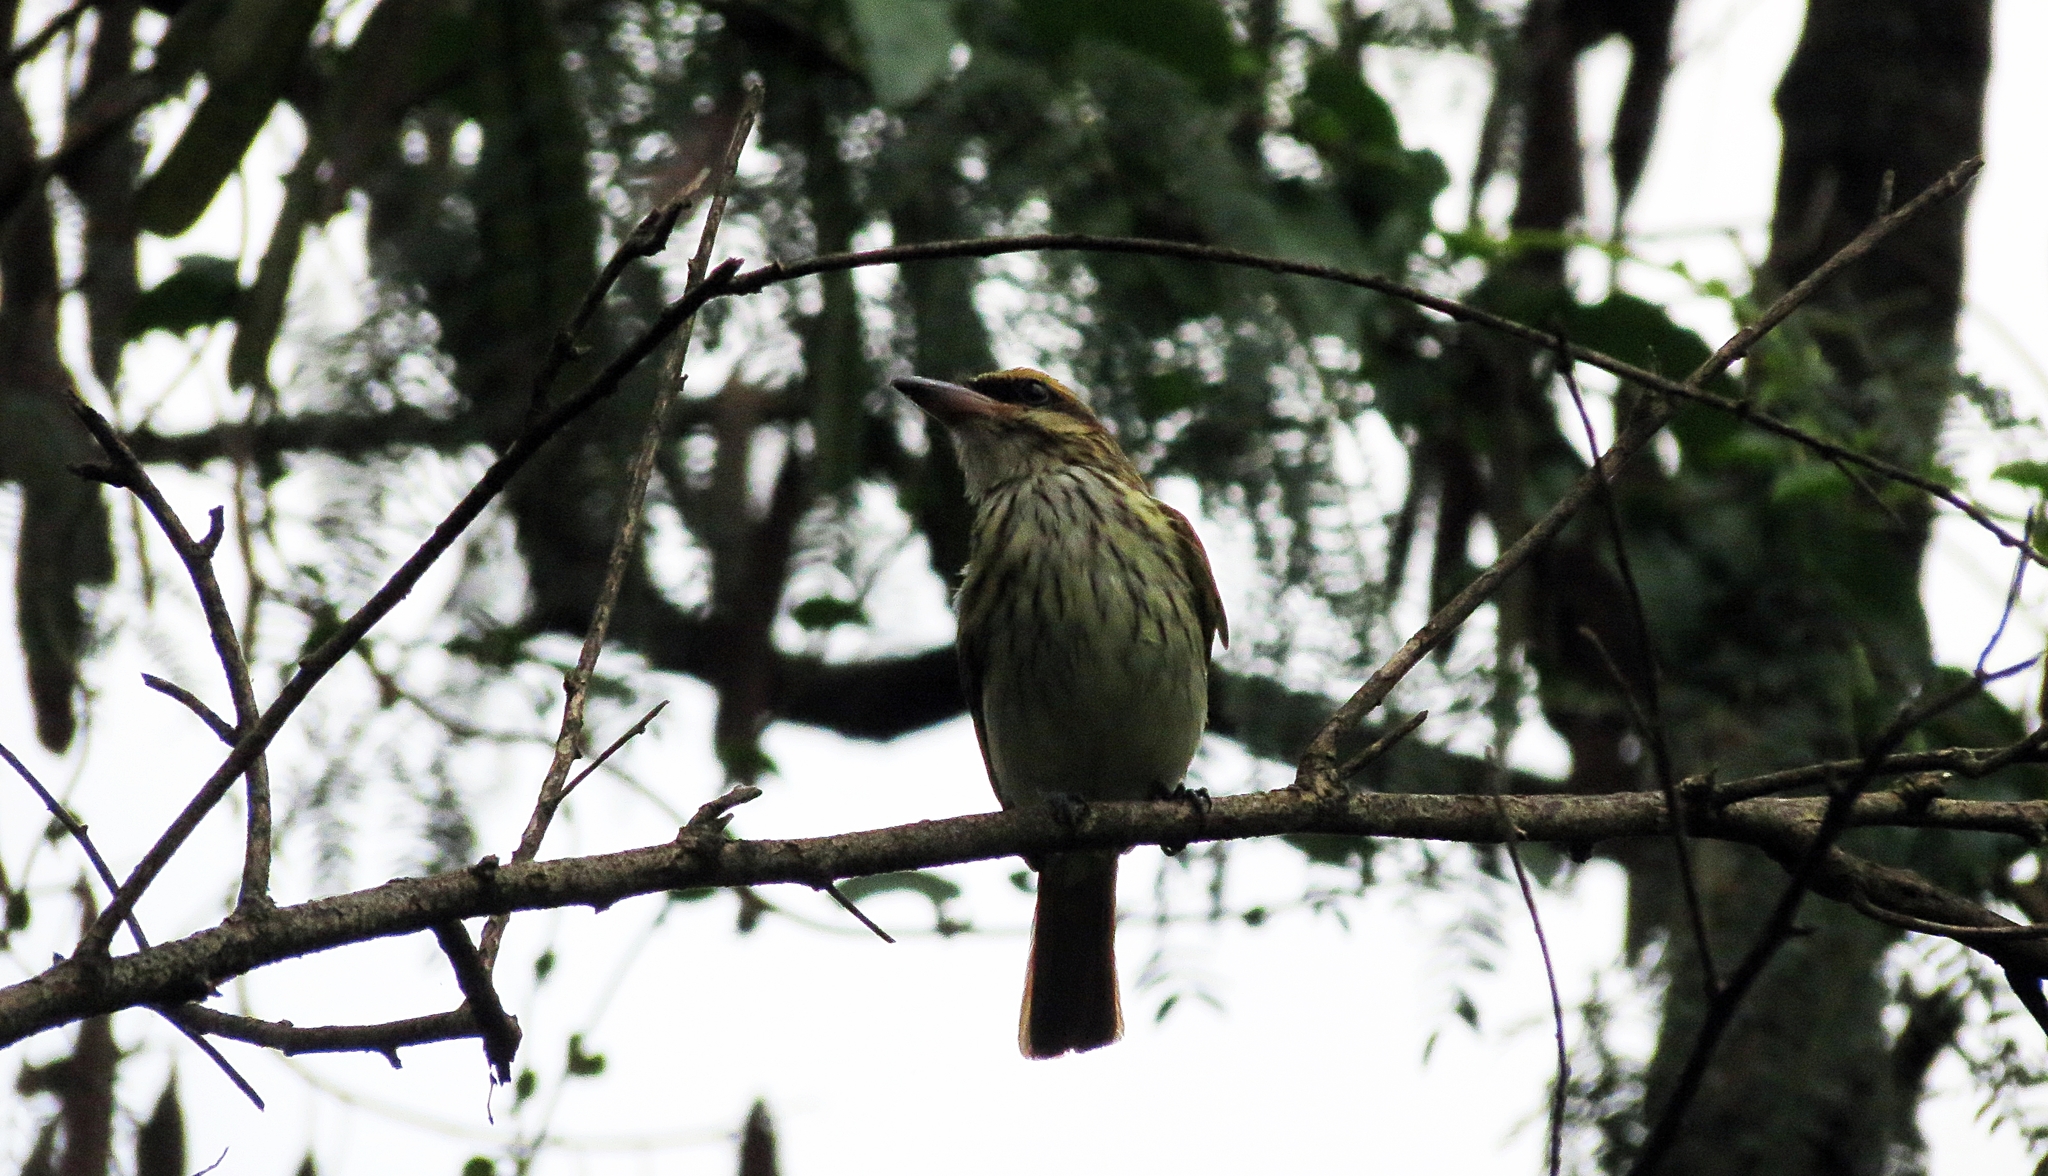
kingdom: Animalia
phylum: Chordata
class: Aves
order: Passeriformes
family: Tyrannidae
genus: Myiodynastes
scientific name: Myiodynastes maculatus
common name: Streaked flycatcher
